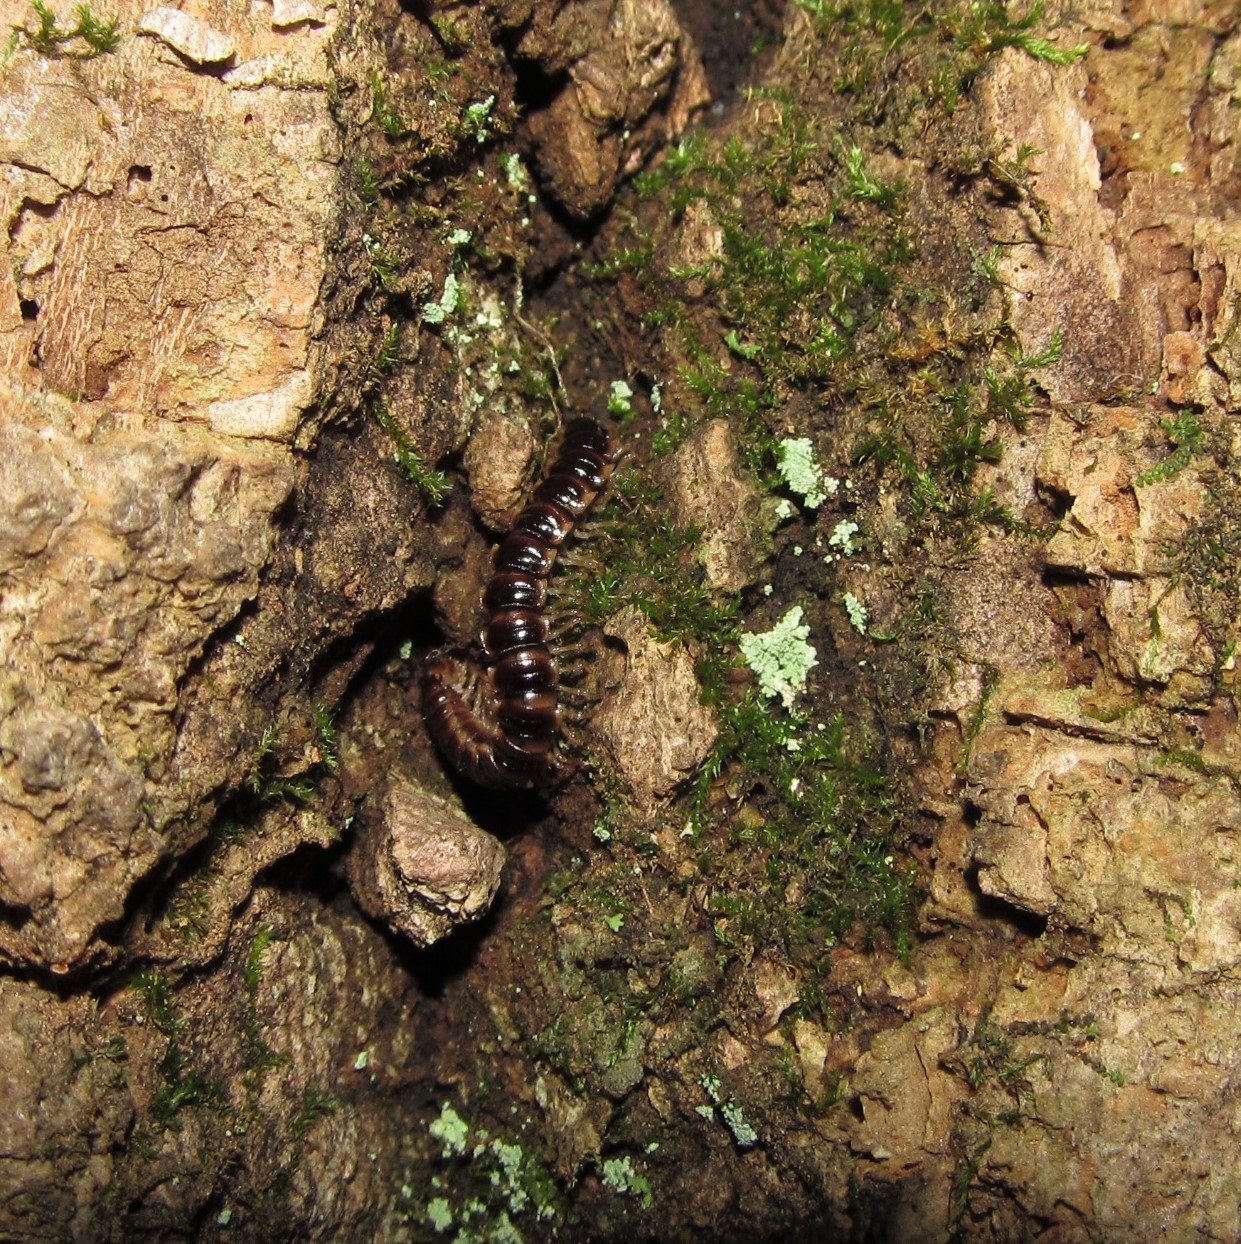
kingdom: Animalia
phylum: Arthropoda
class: Diplopoda
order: Polydesmida
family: Paradoxosomatidae
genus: Oxidus
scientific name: Oxidus gracilis
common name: Greenhouse millipede
